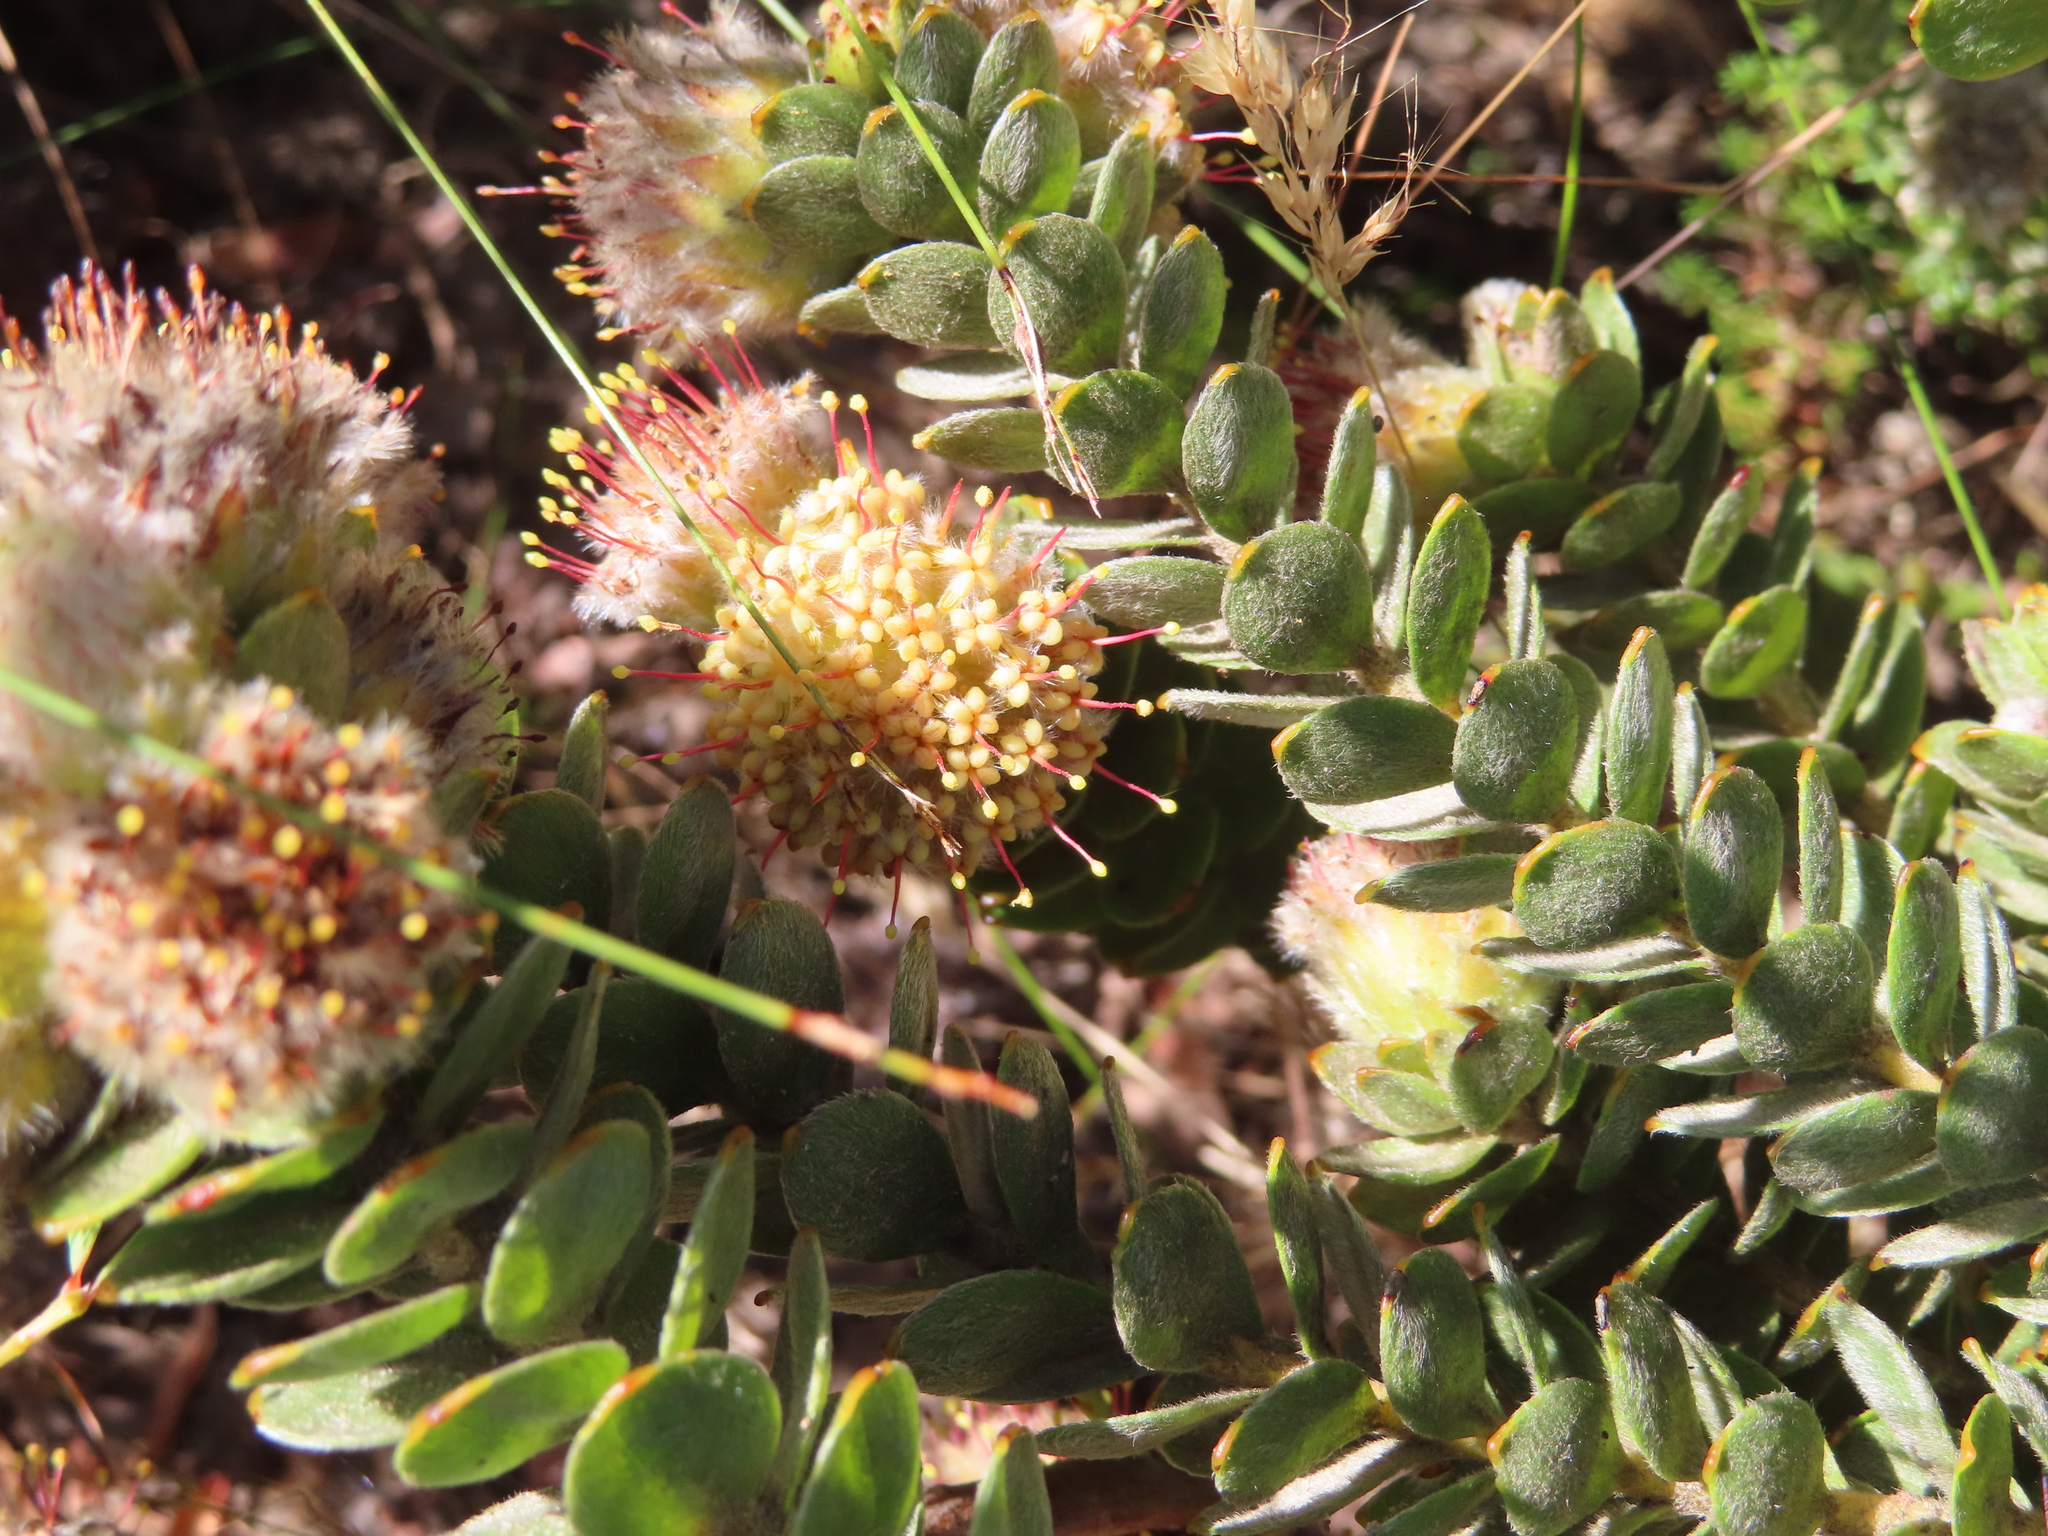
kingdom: Plantae
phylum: Tracheophyta
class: Magnoliopsida
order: Proteales
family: Proteaceae
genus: Leucospermum
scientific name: Leucospermum truncatulum
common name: Oval-leaf pincushion
